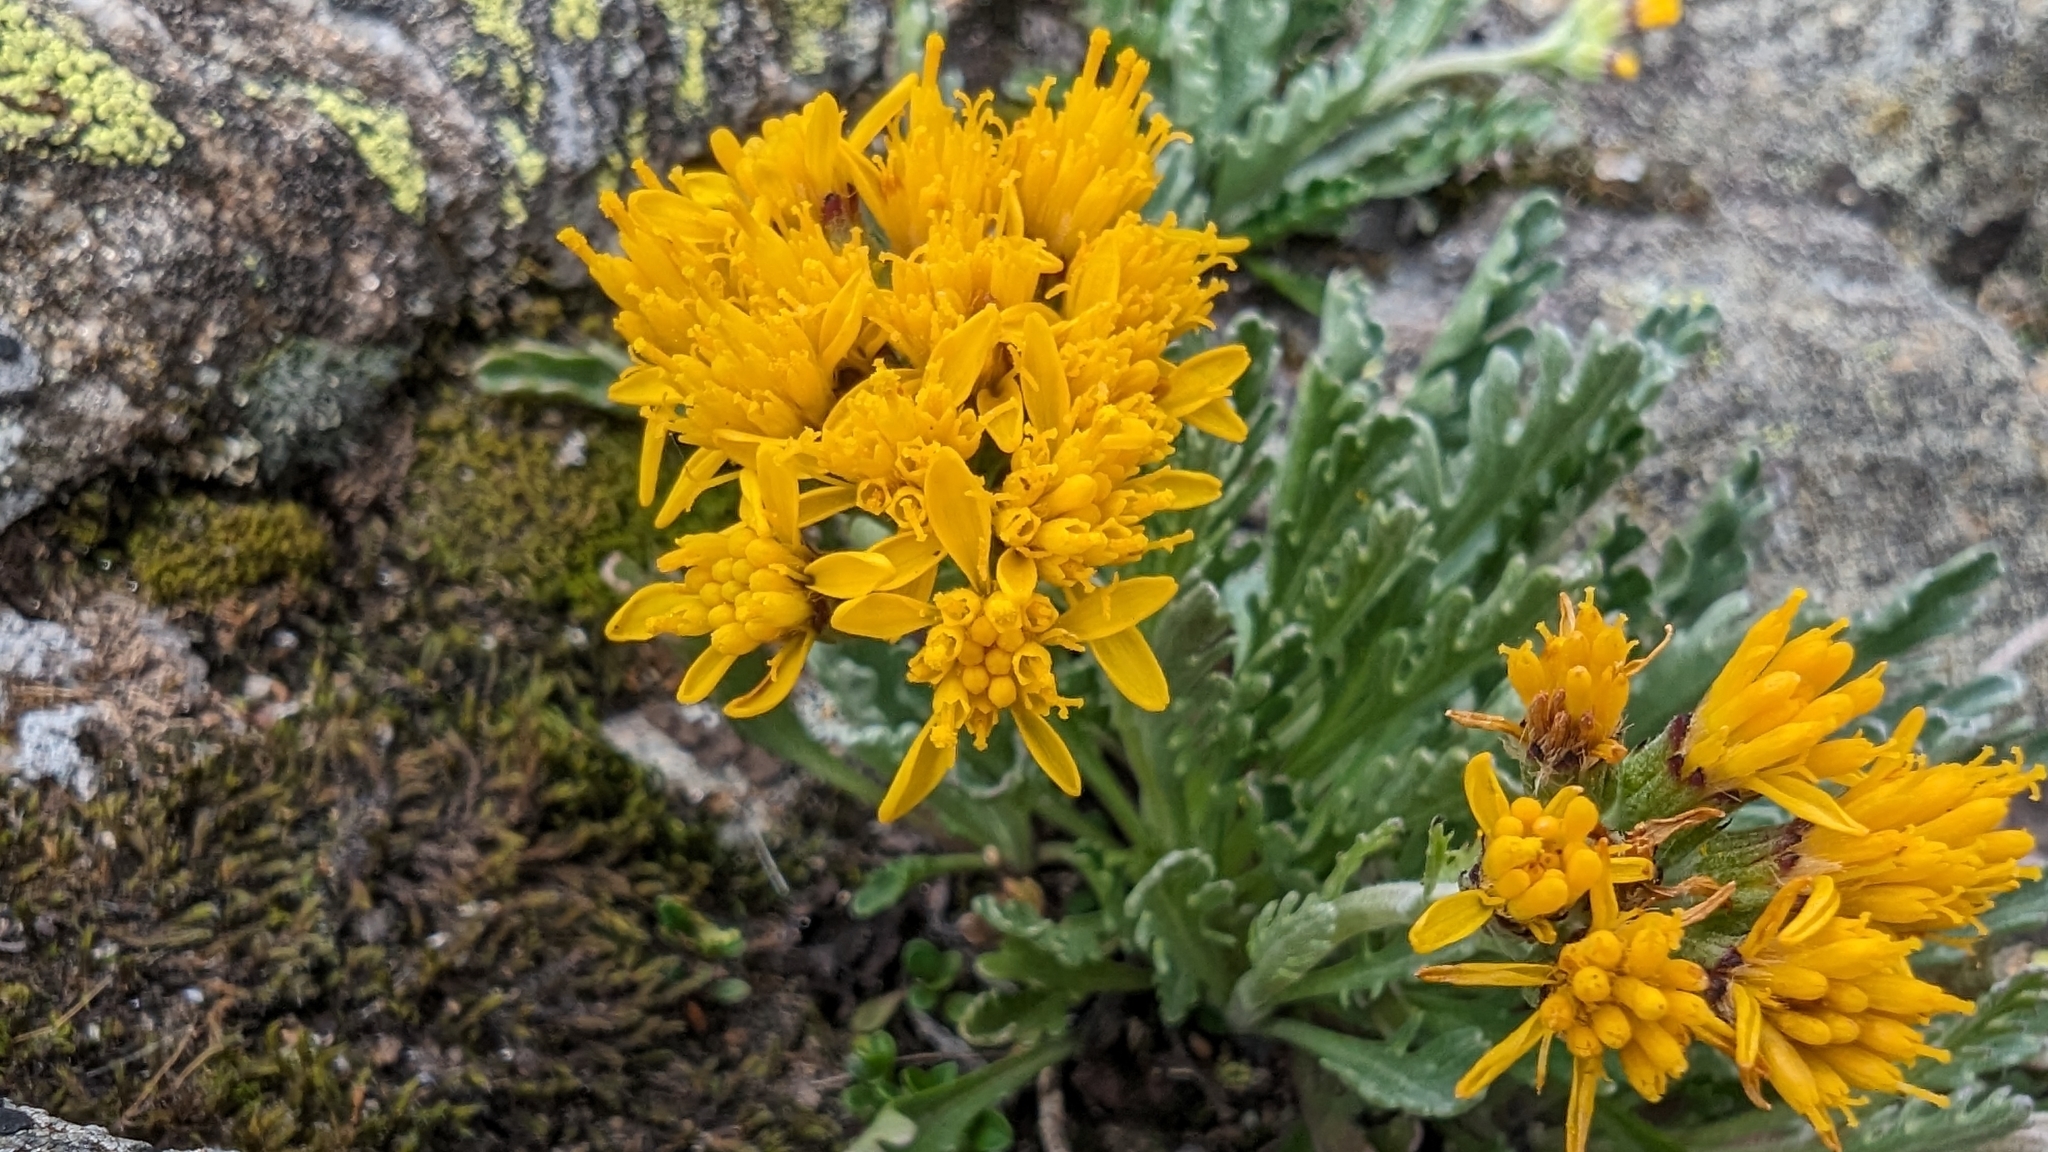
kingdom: Plantae
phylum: Tracheophyta
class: Magnoliopsida
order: Asterales
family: Asteraceae
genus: Jacobaea
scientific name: Jacobaea carniolica
